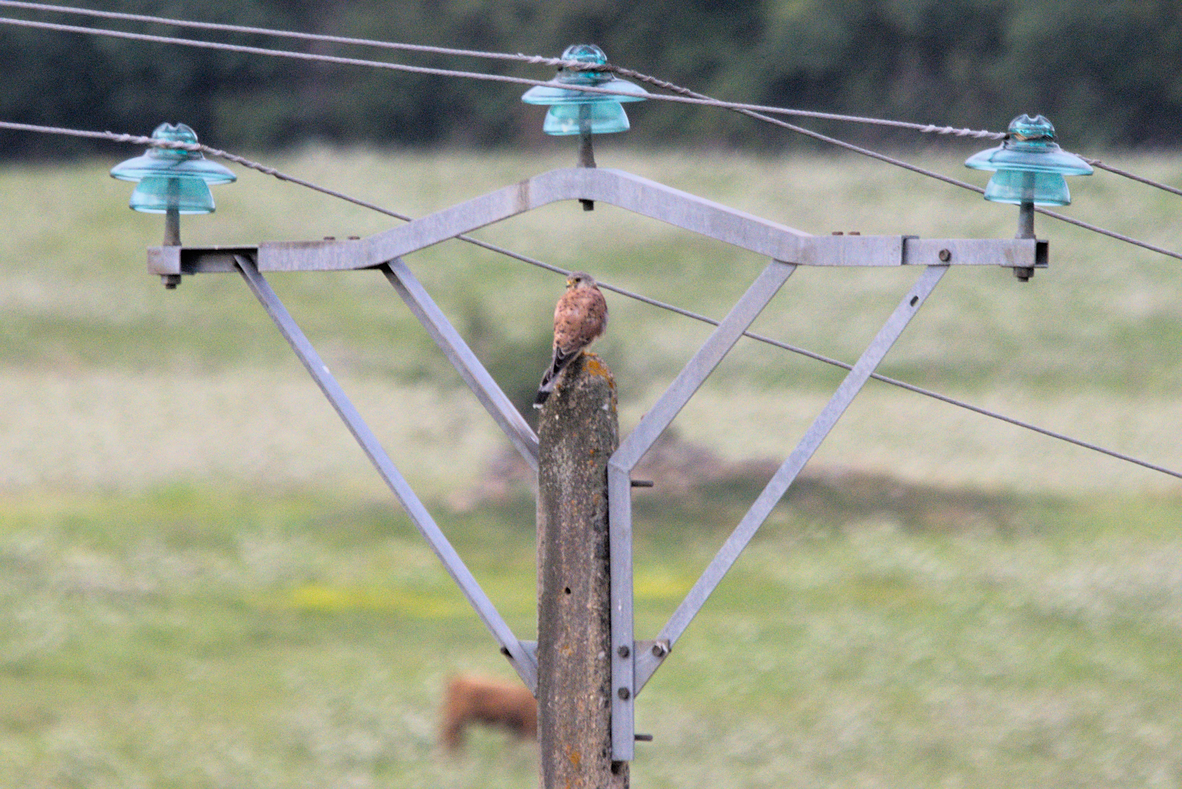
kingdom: Animalia
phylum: Chordata
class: Aves
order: Falconiformes
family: Falconidae
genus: Falco
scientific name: Falco tinnunculus
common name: Common kestrel
